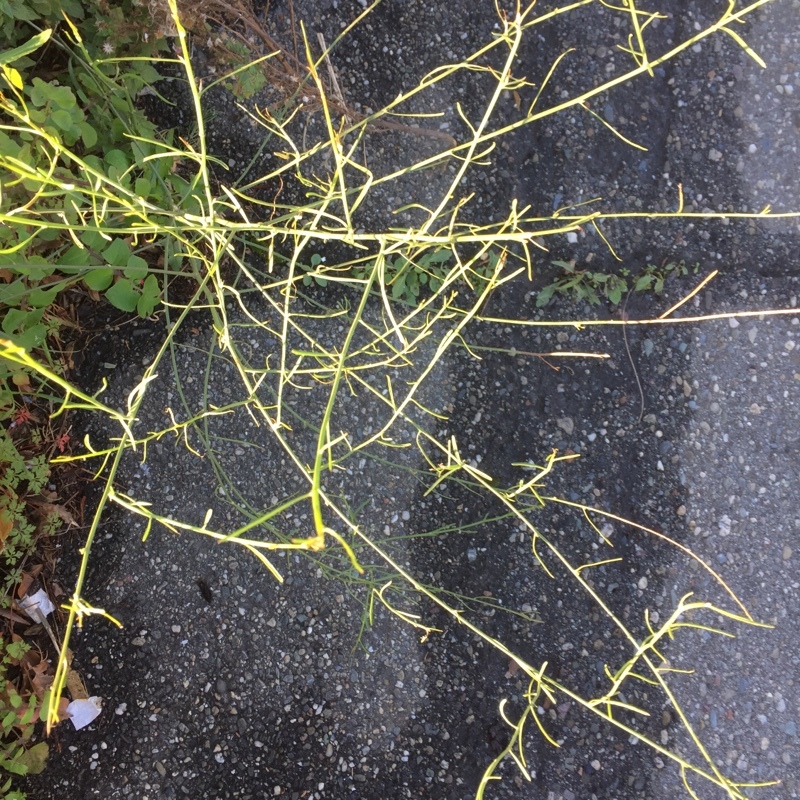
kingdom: Plantae
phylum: Tracheophyta
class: Magnoliopsida
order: Asterales
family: Asteraceae
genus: Chondrilla
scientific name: Chondrilla juncea
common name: Skeleton weed
